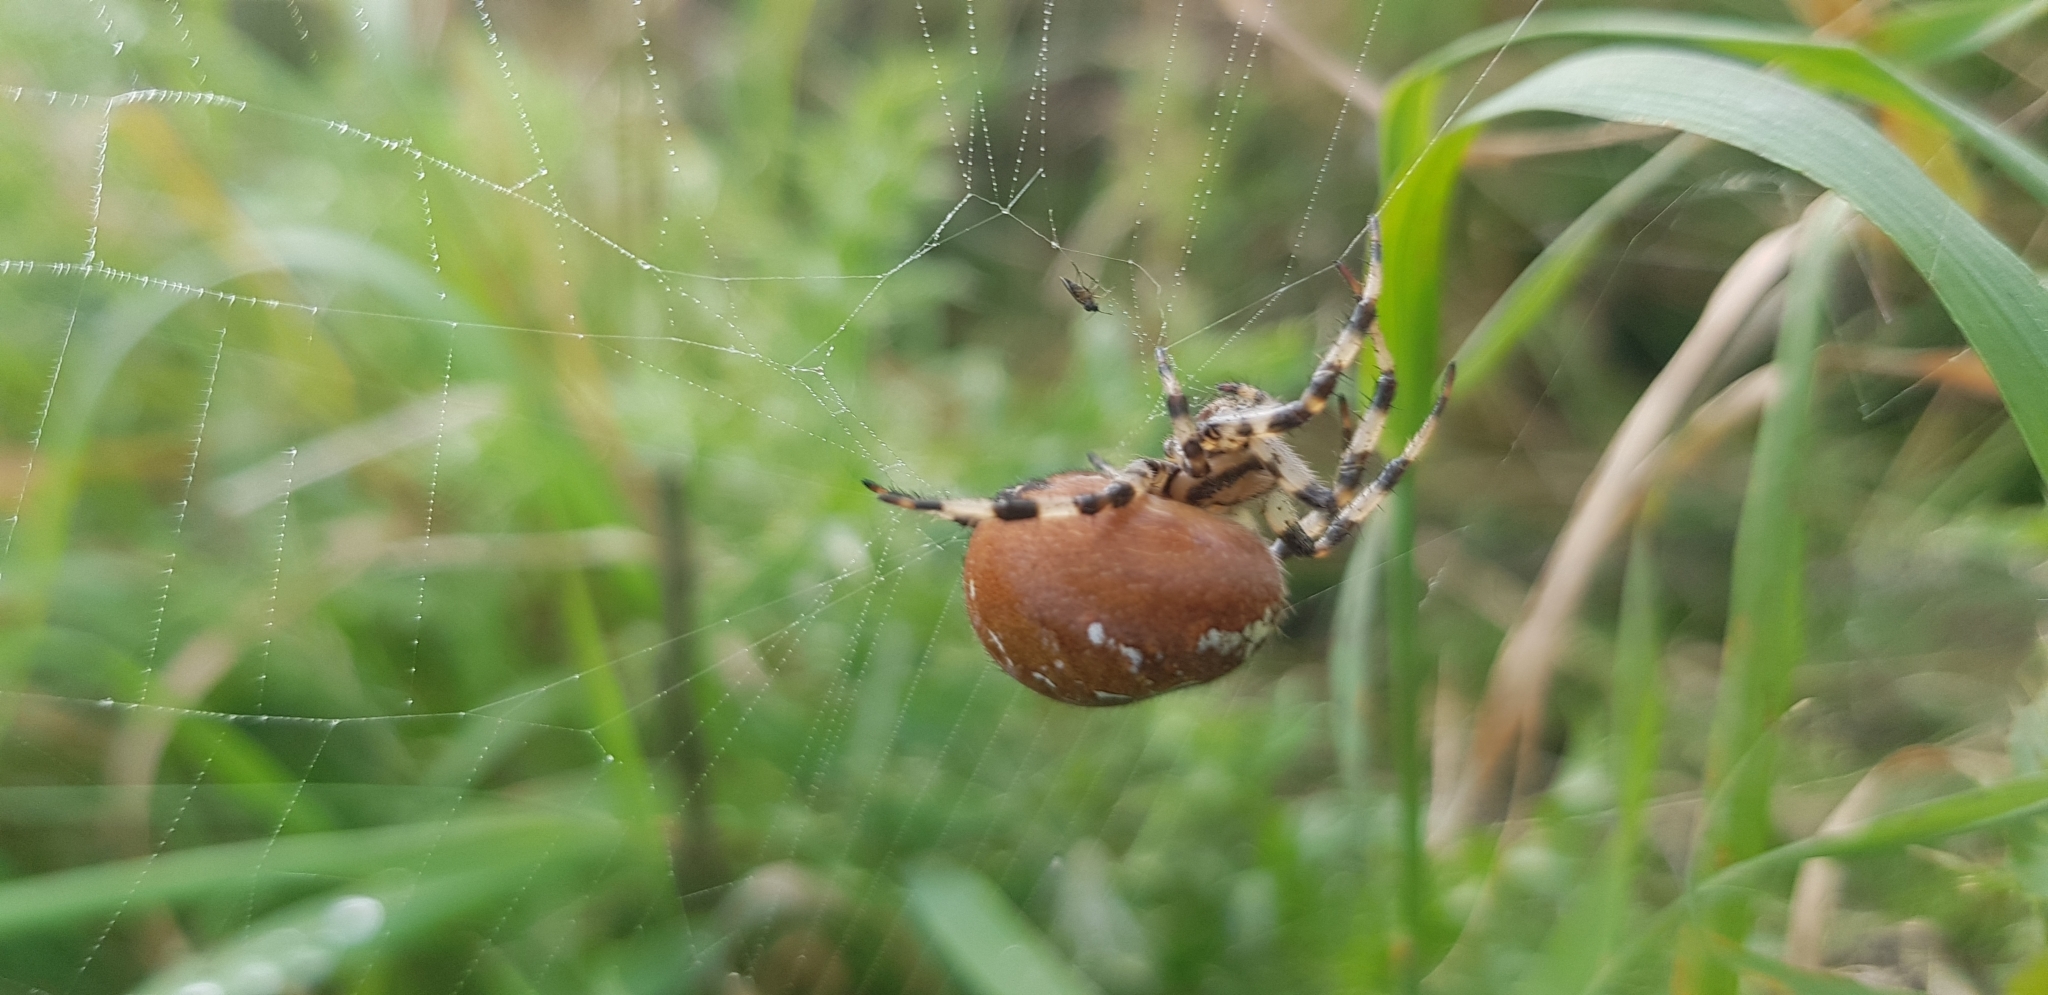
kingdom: Animalia
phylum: Arthropoda
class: Arachnida
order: Araneae
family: Araneidae
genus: Araneus
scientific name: Araneus quadratus
